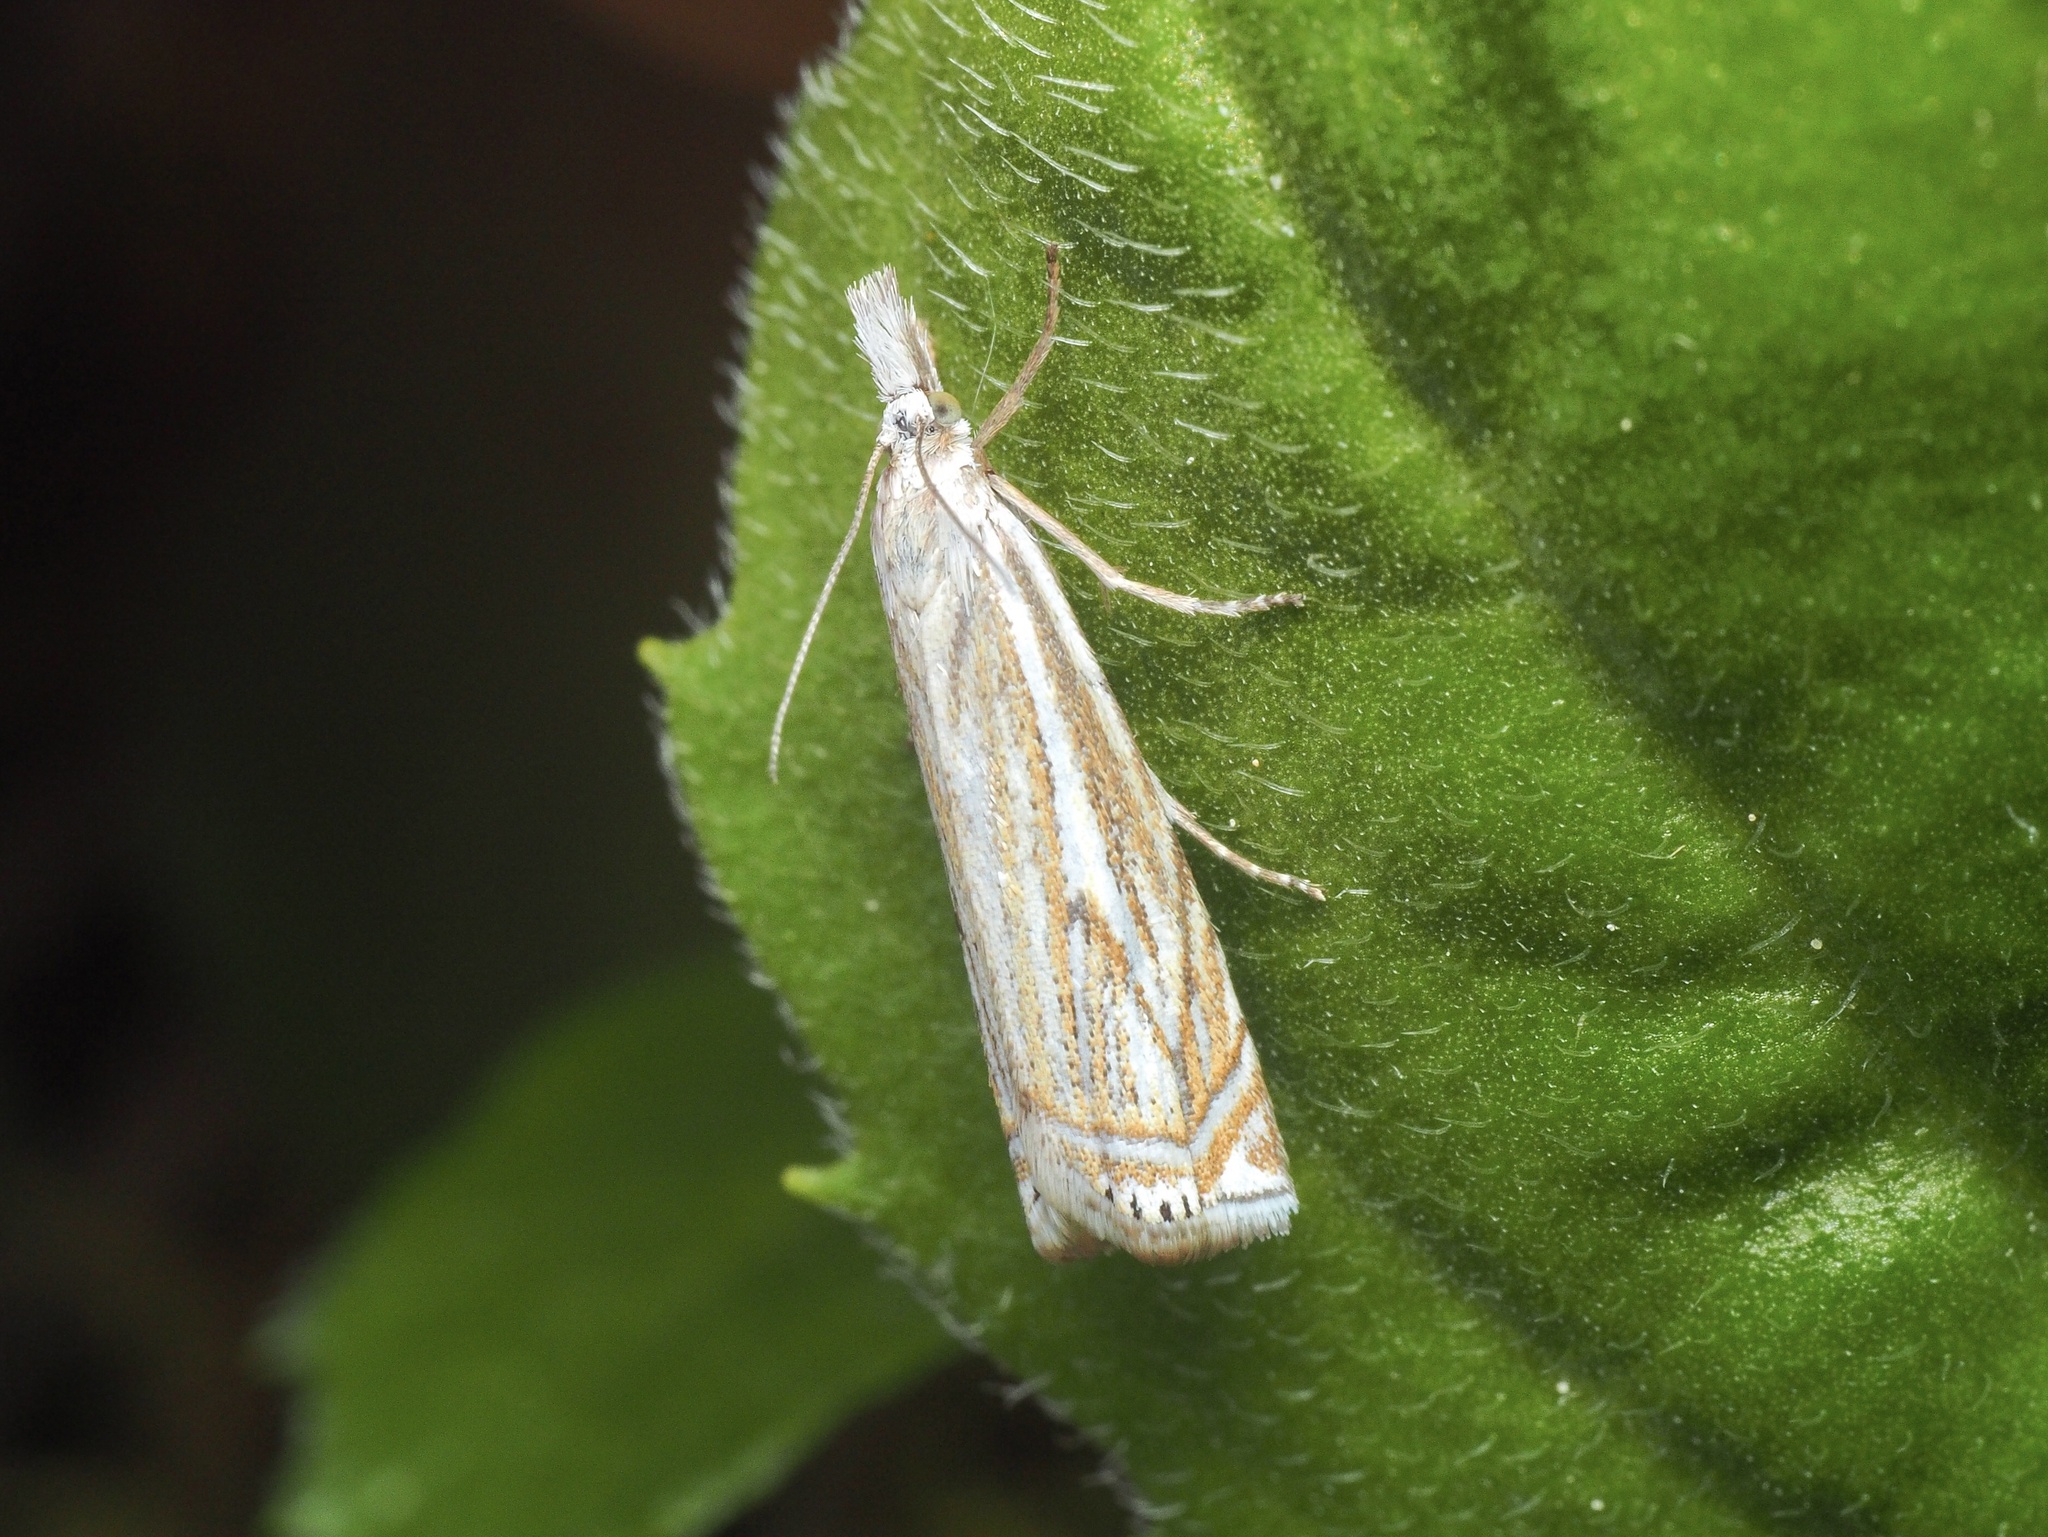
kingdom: Animalia
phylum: Arthropoda
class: Insecta
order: Lepidoptera
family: Crambidae
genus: Crambus
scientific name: Crambus nemorella
